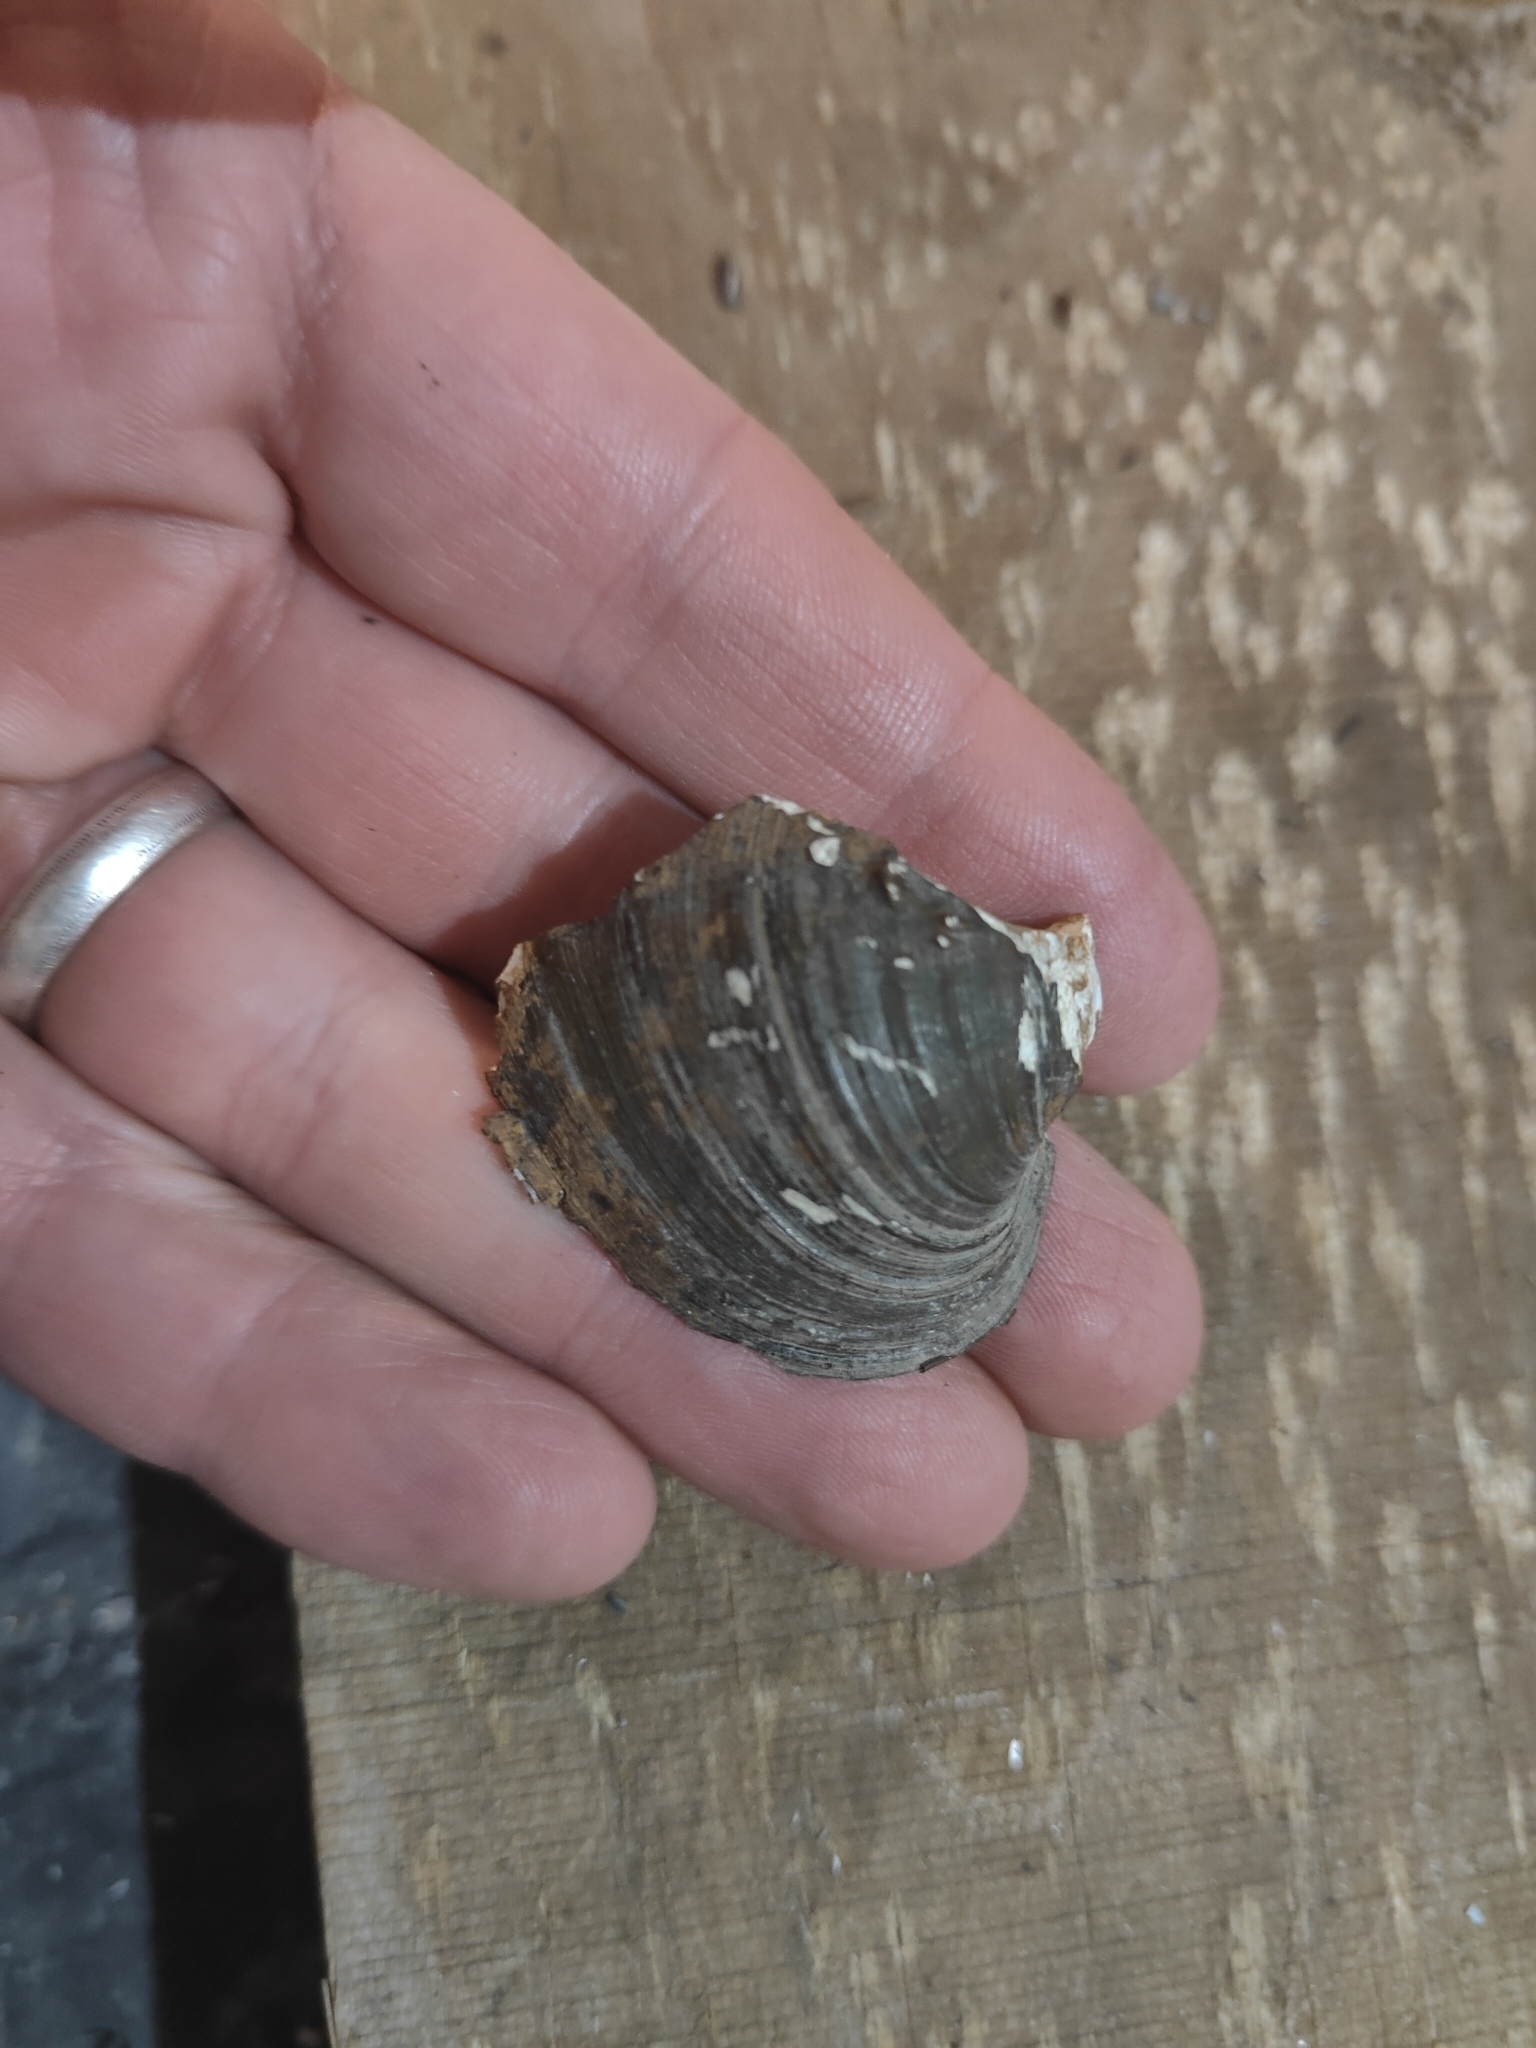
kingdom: Animalia
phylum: Mollusca
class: Bivalvia
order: Unionida
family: Unionidae
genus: Quadrula
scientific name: Quadrula quadrula
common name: Mapleleaf
